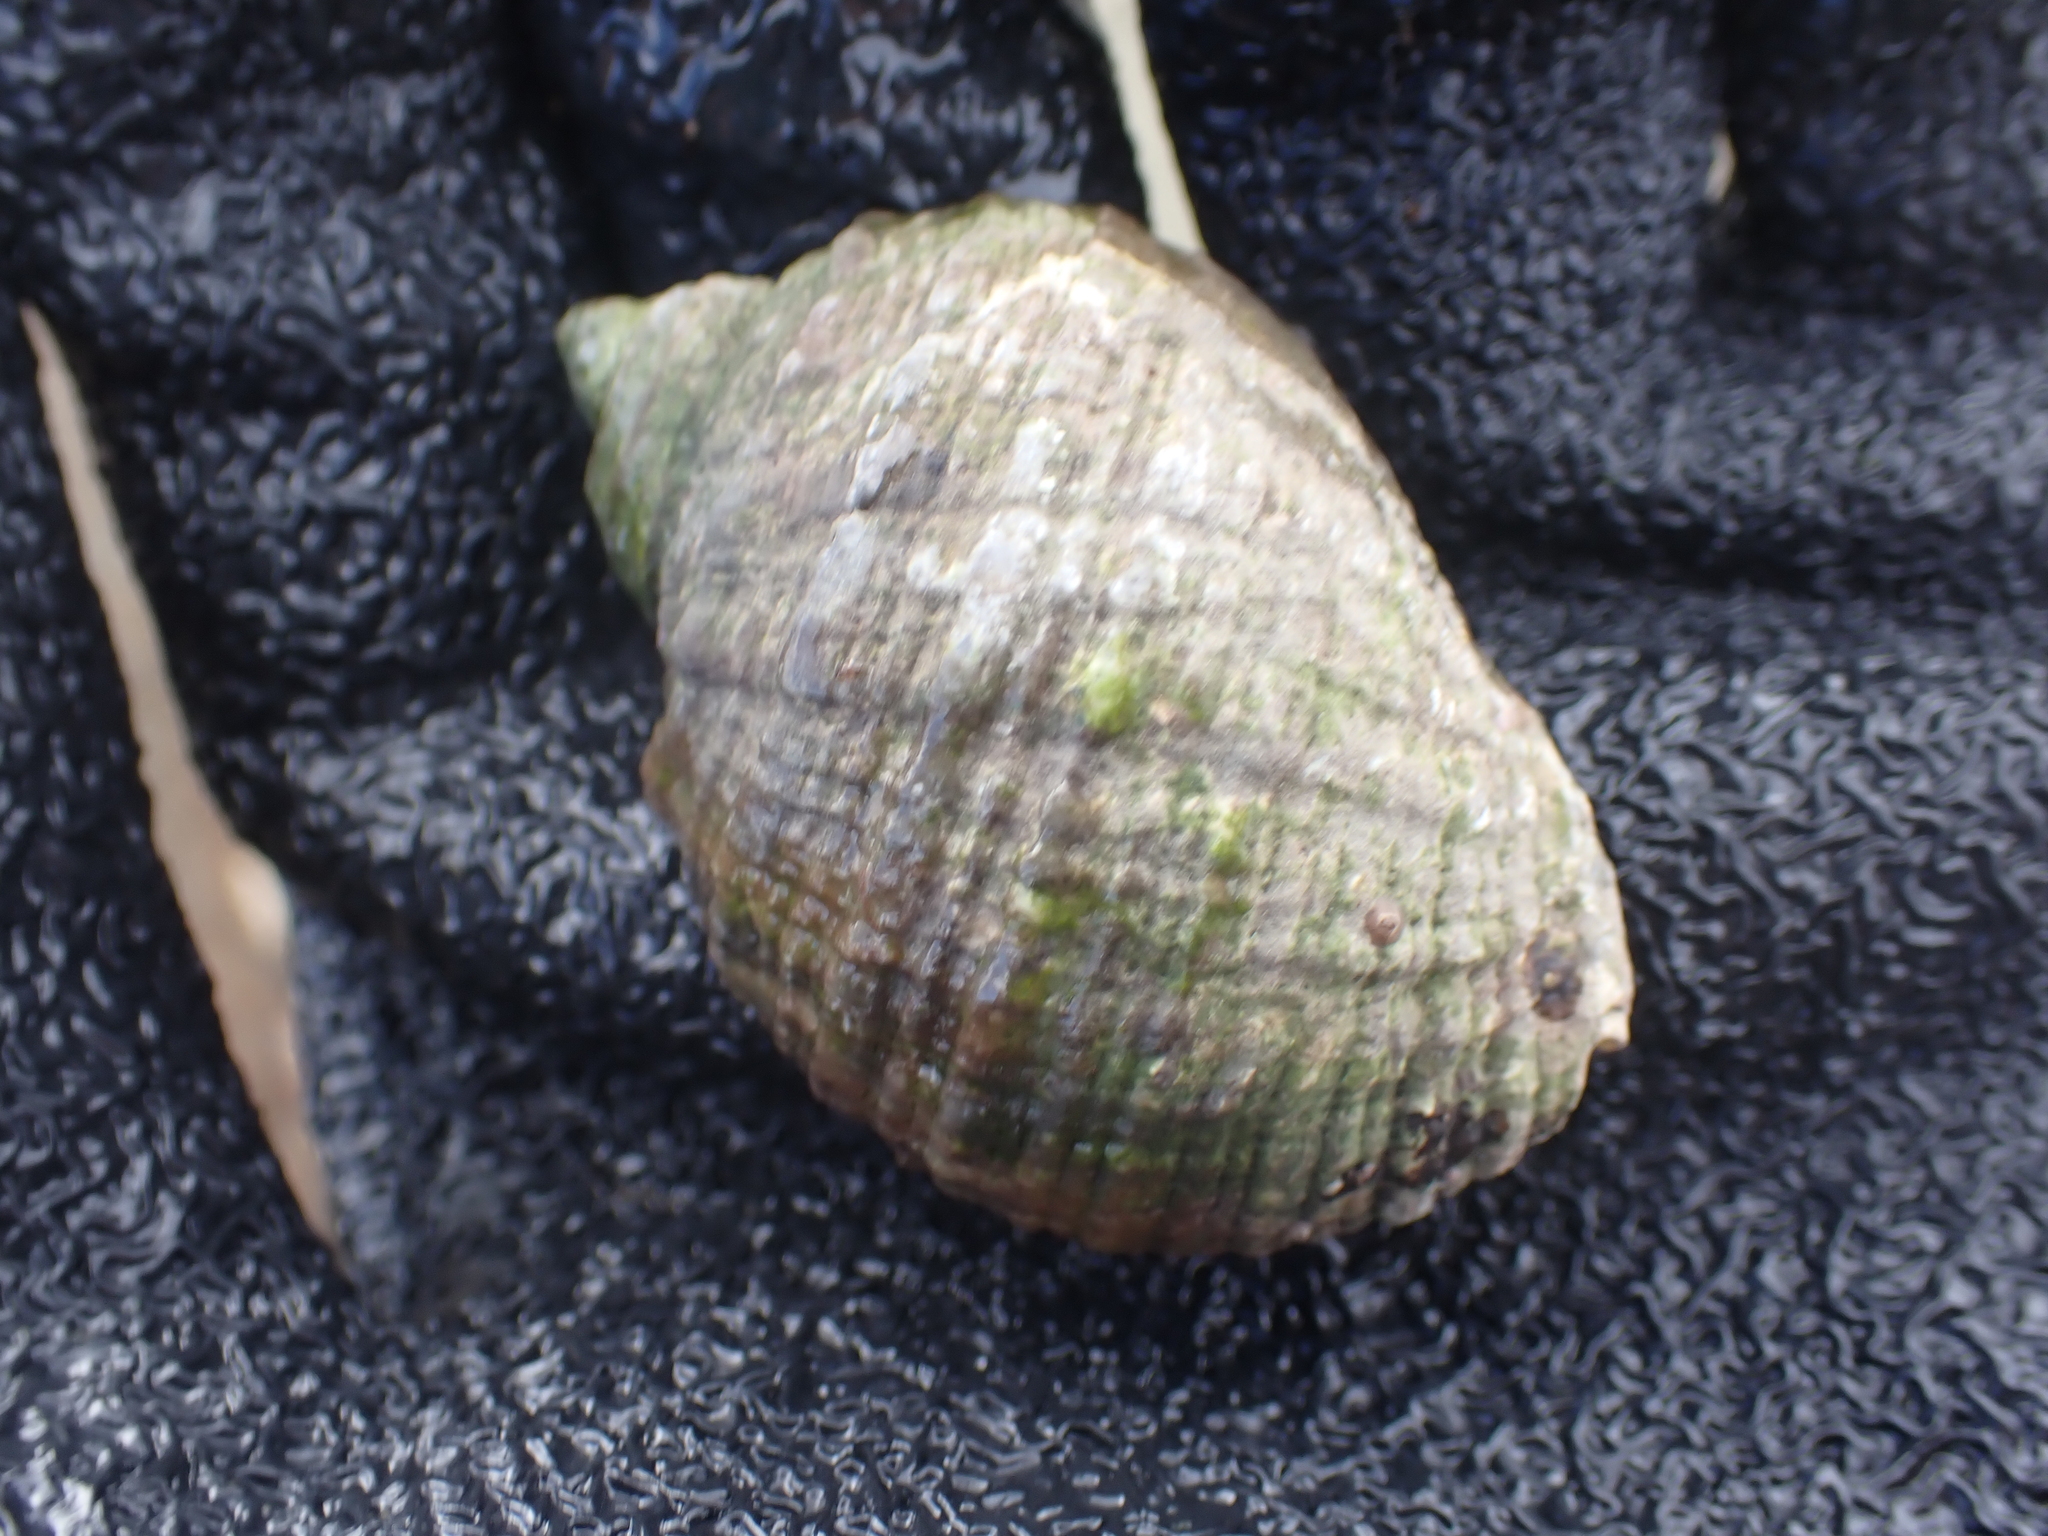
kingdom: Animalia
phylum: Mollusca
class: Gastropoda
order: Neogastropoda
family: Muricidae
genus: Dicathais
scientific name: Dicathais orbita
